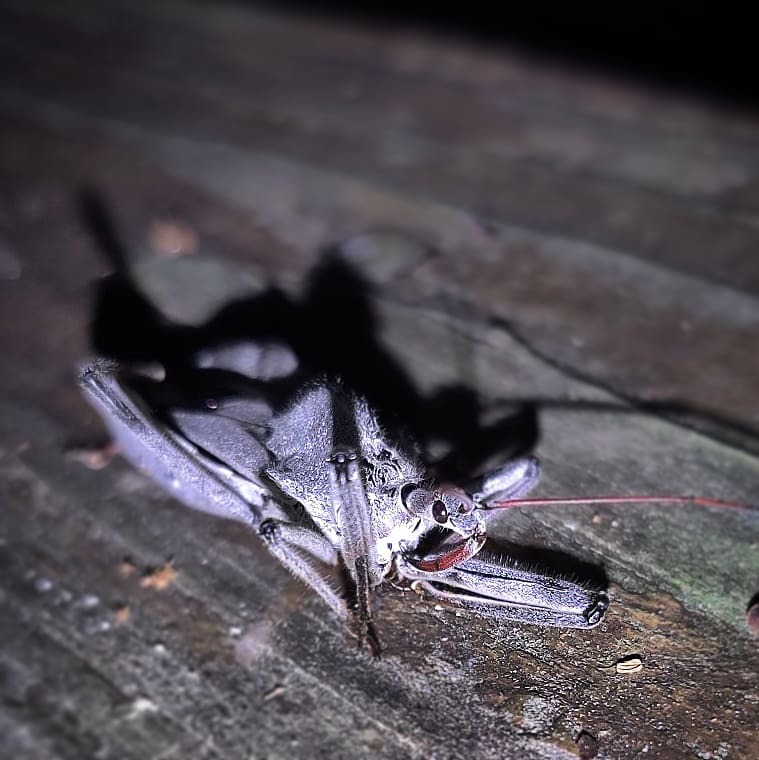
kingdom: Animalia
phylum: Arthropoda
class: Insecta
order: Hemiptera
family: Reduviidae
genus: Arilus
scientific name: Arilus cristatus
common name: North american wheel bug
